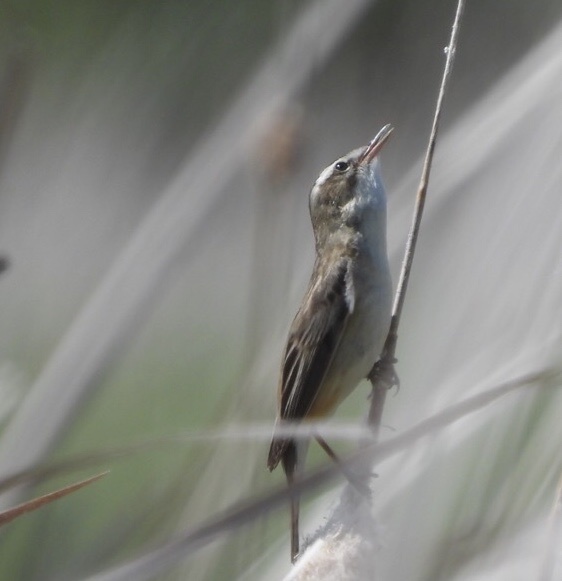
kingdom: Animalia
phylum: Chordata
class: Aves
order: Passeriformes
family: Acrocephalidae
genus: Acrocephalus
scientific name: Acrocephalus schoenobaenus
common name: Sedge warbler
